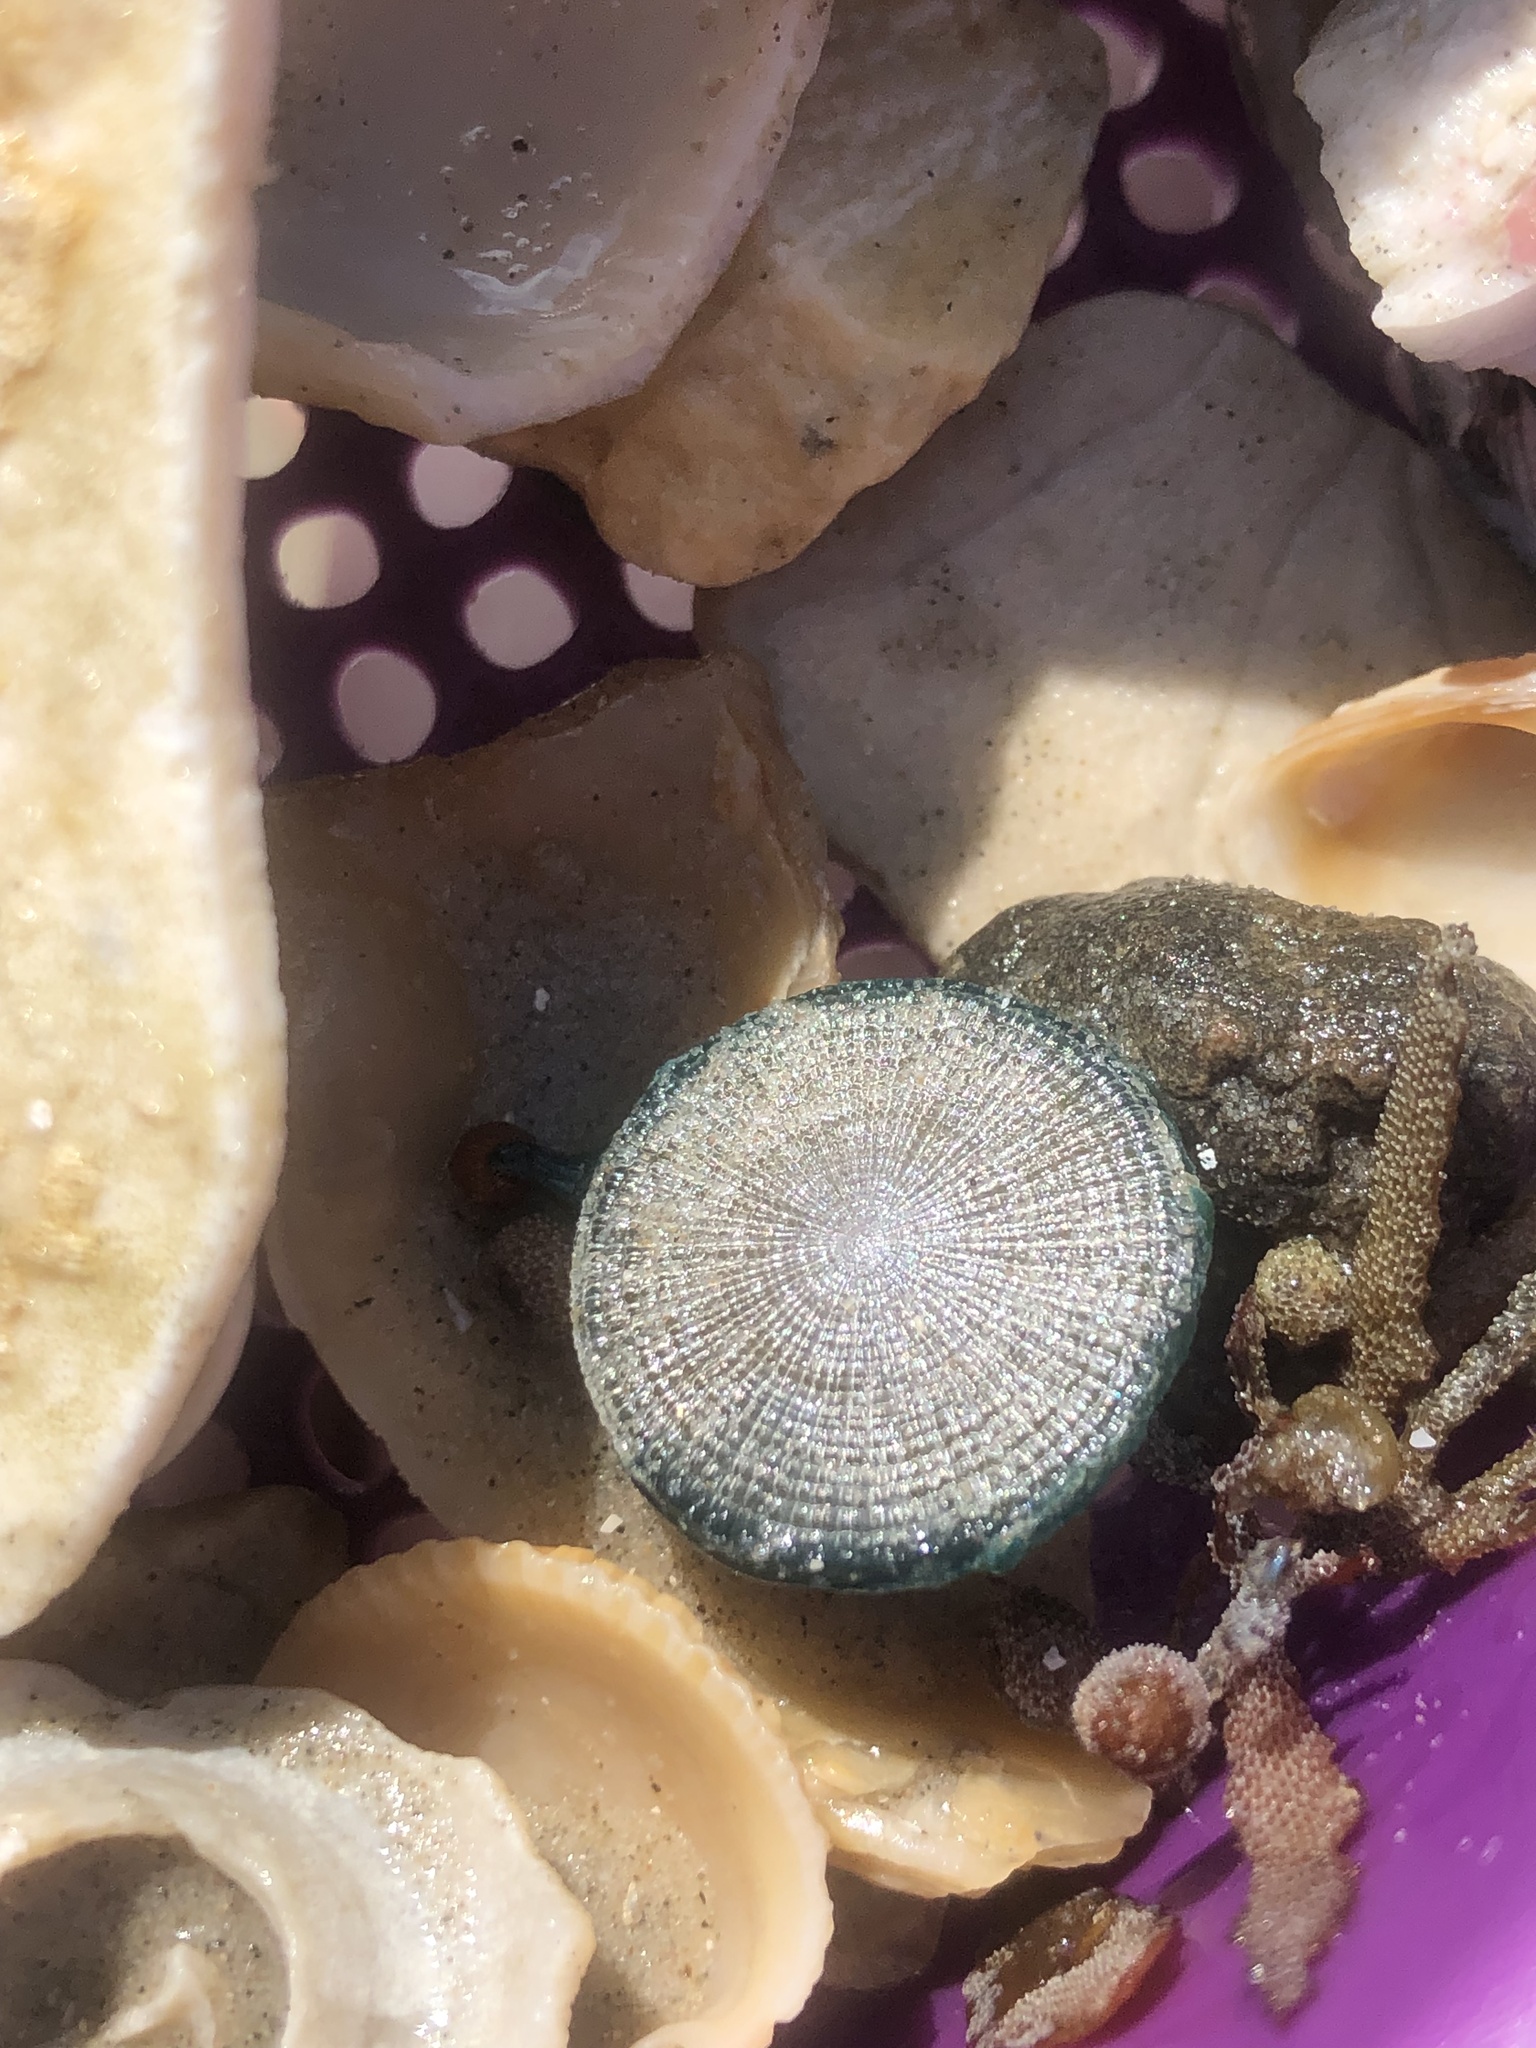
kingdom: Animalia
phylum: Cnidaria
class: Hydrozoa
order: Anthoathecata
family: Porpitidae
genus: Porpita
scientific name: Porpita porpita
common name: Blue button
